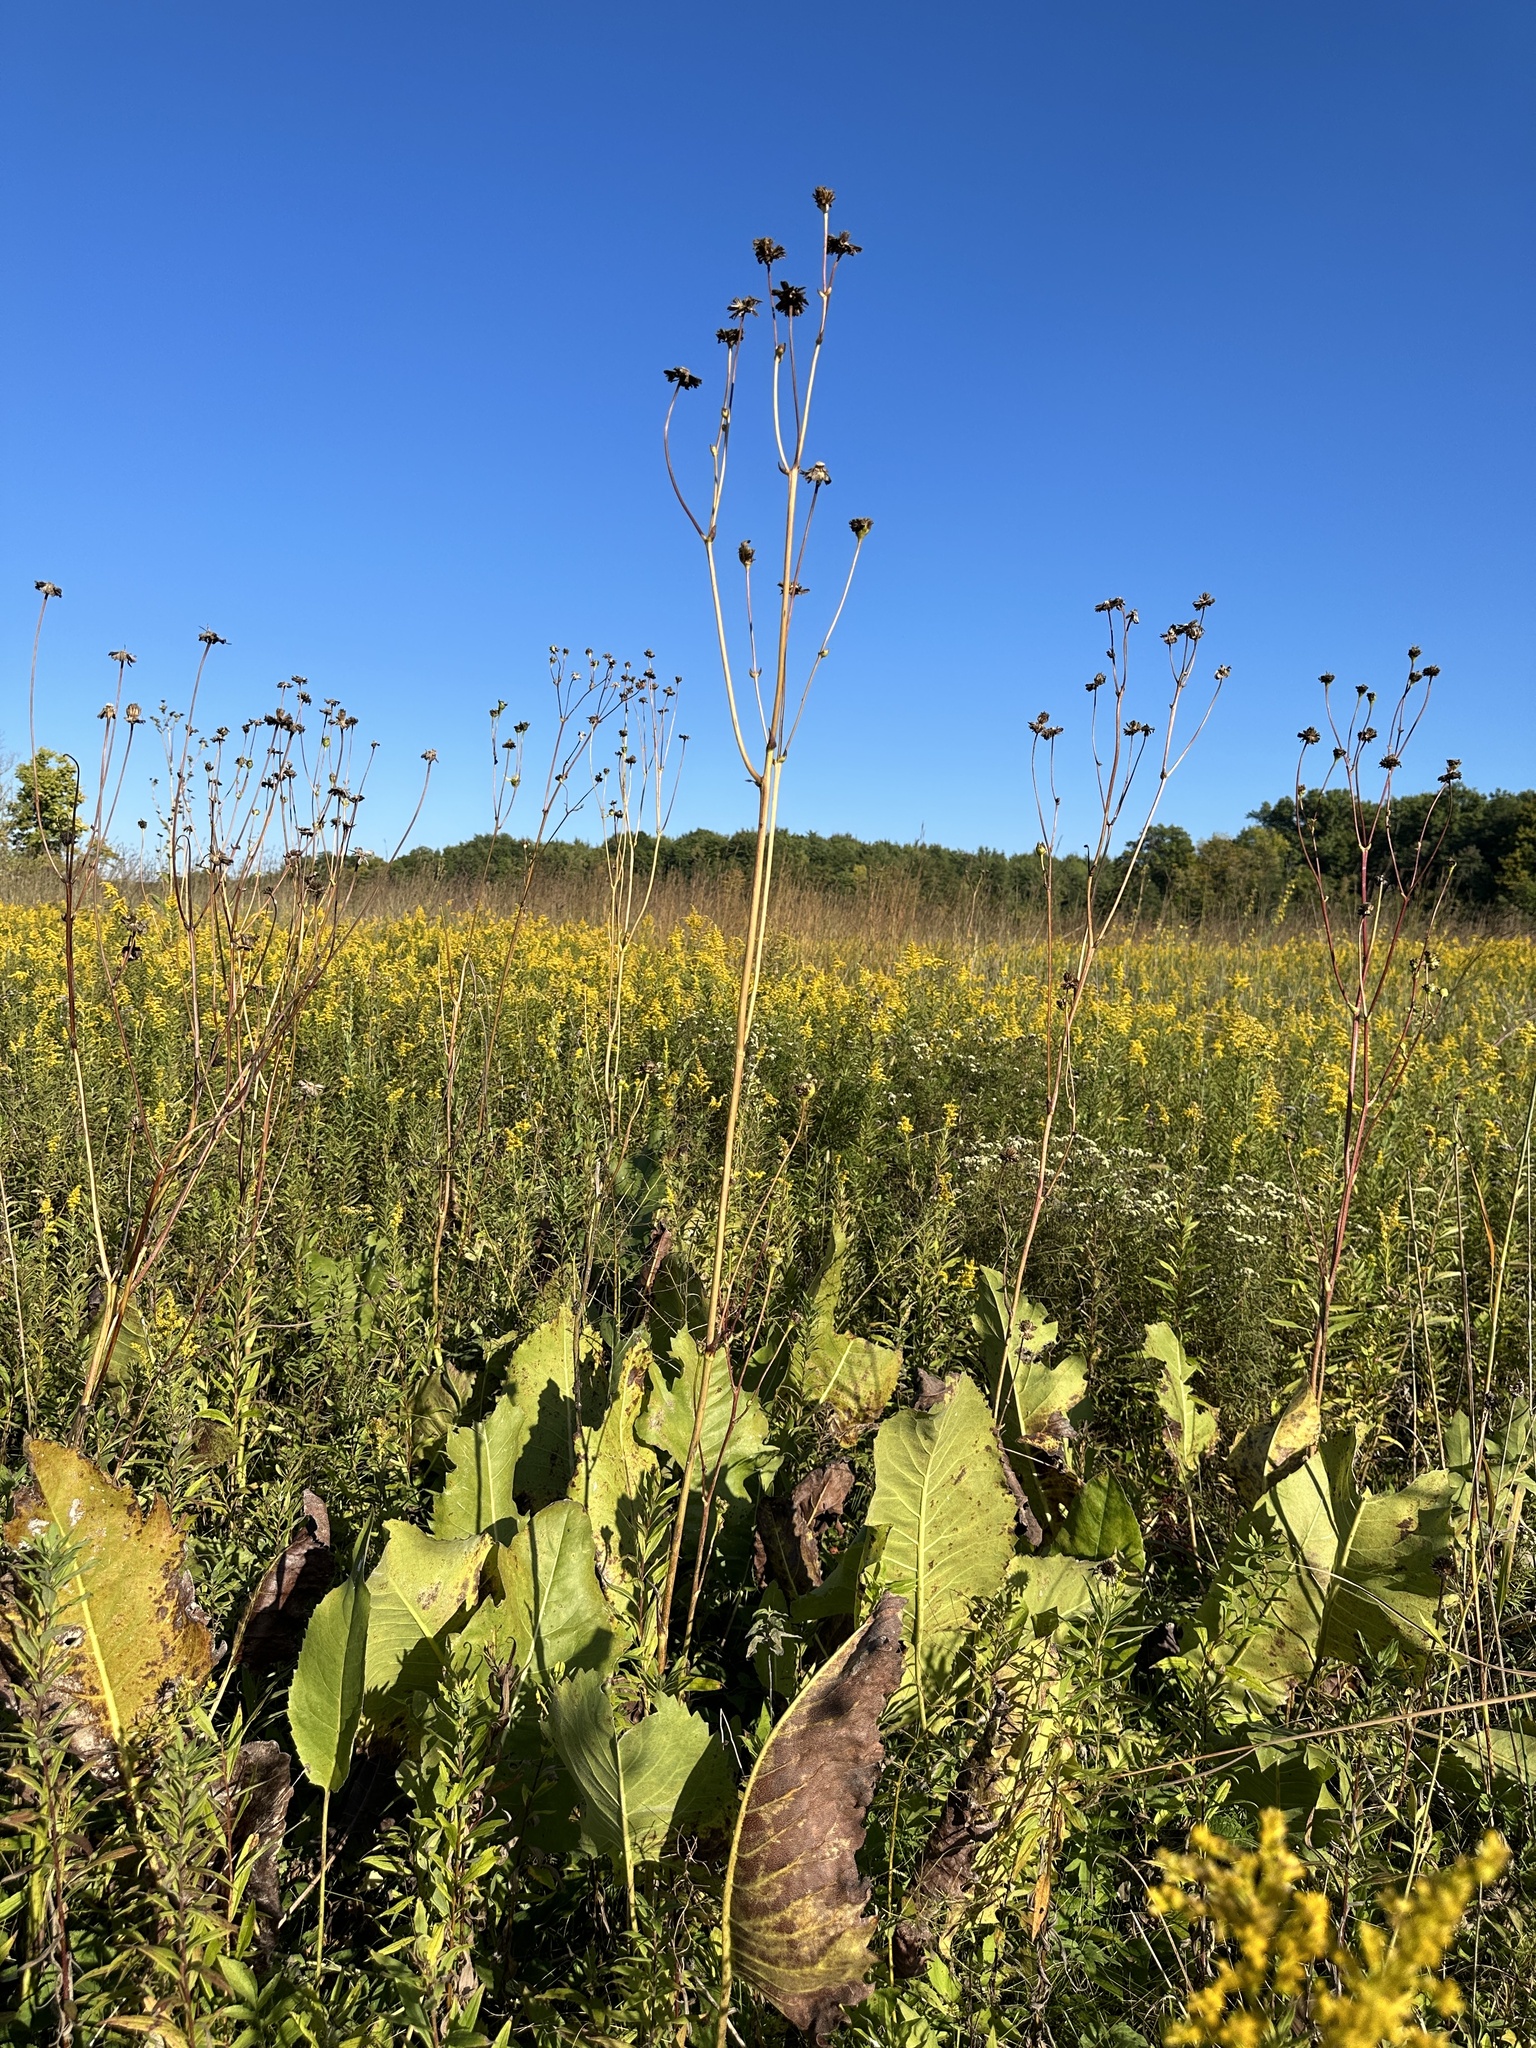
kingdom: Plantae
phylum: Tracheophyta
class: Magnoliopsida
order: Asterales
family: Asteraceae
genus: Silphium
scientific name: Silphium terebinthinaceum
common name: Basal-leaf rosinweed
